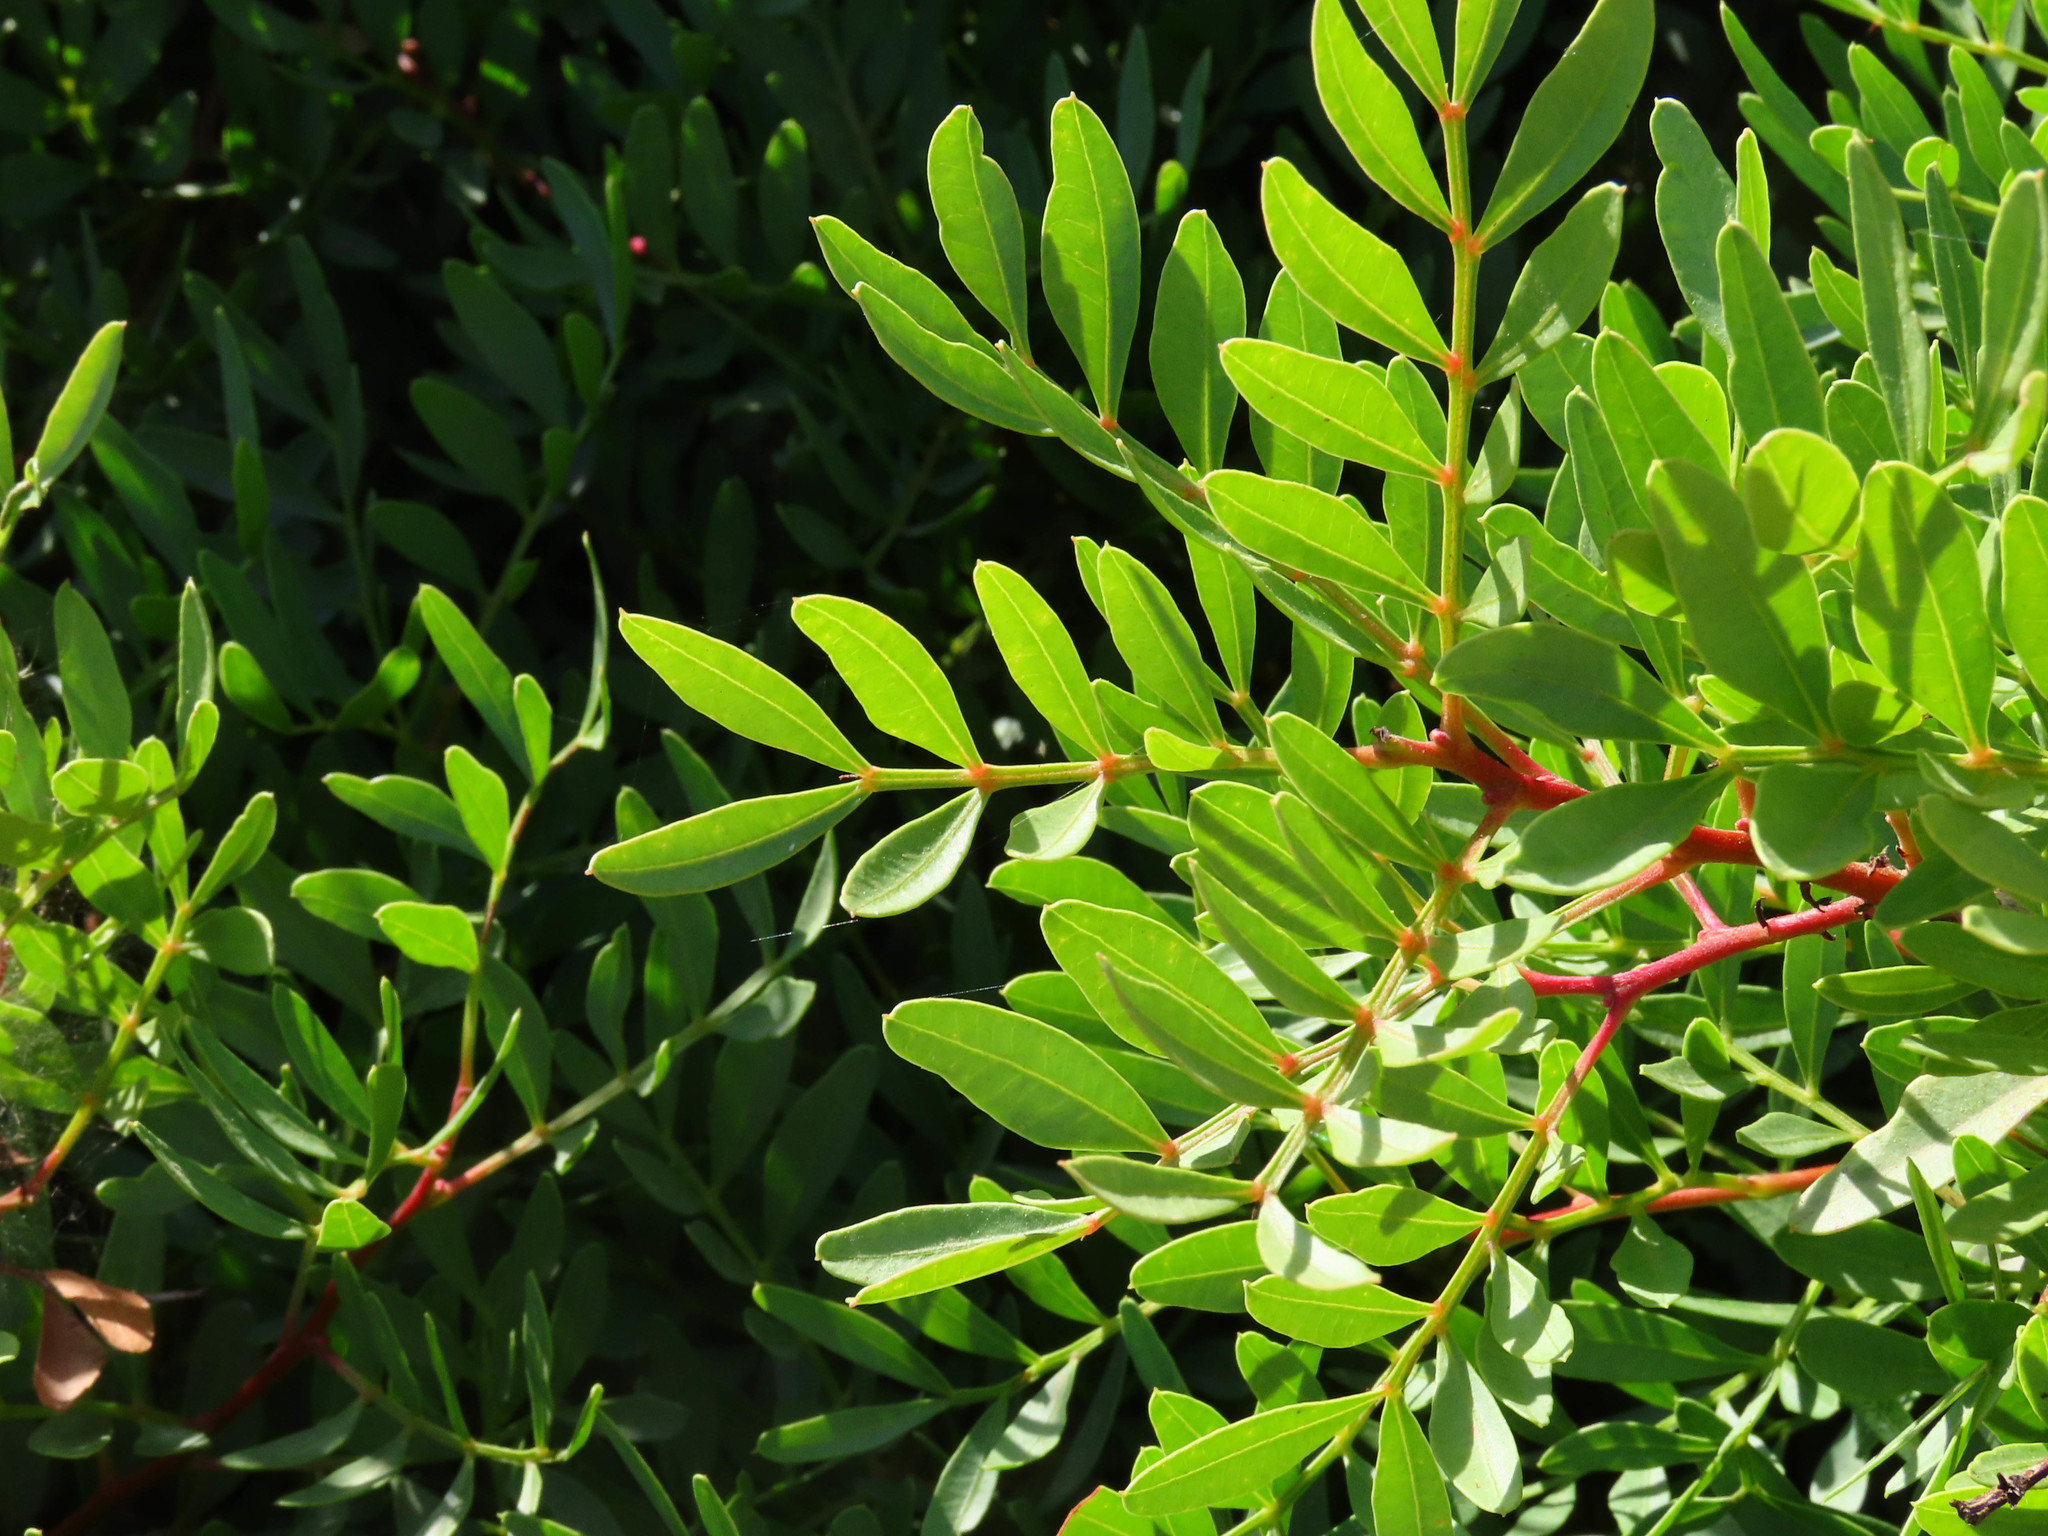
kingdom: Plantae
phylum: Tracheophyta
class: Magnoliopsida
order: Sapindales
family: Anacardiaceae
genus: Pistacia
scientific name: Pistacia lentiscus
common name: Lentisk
